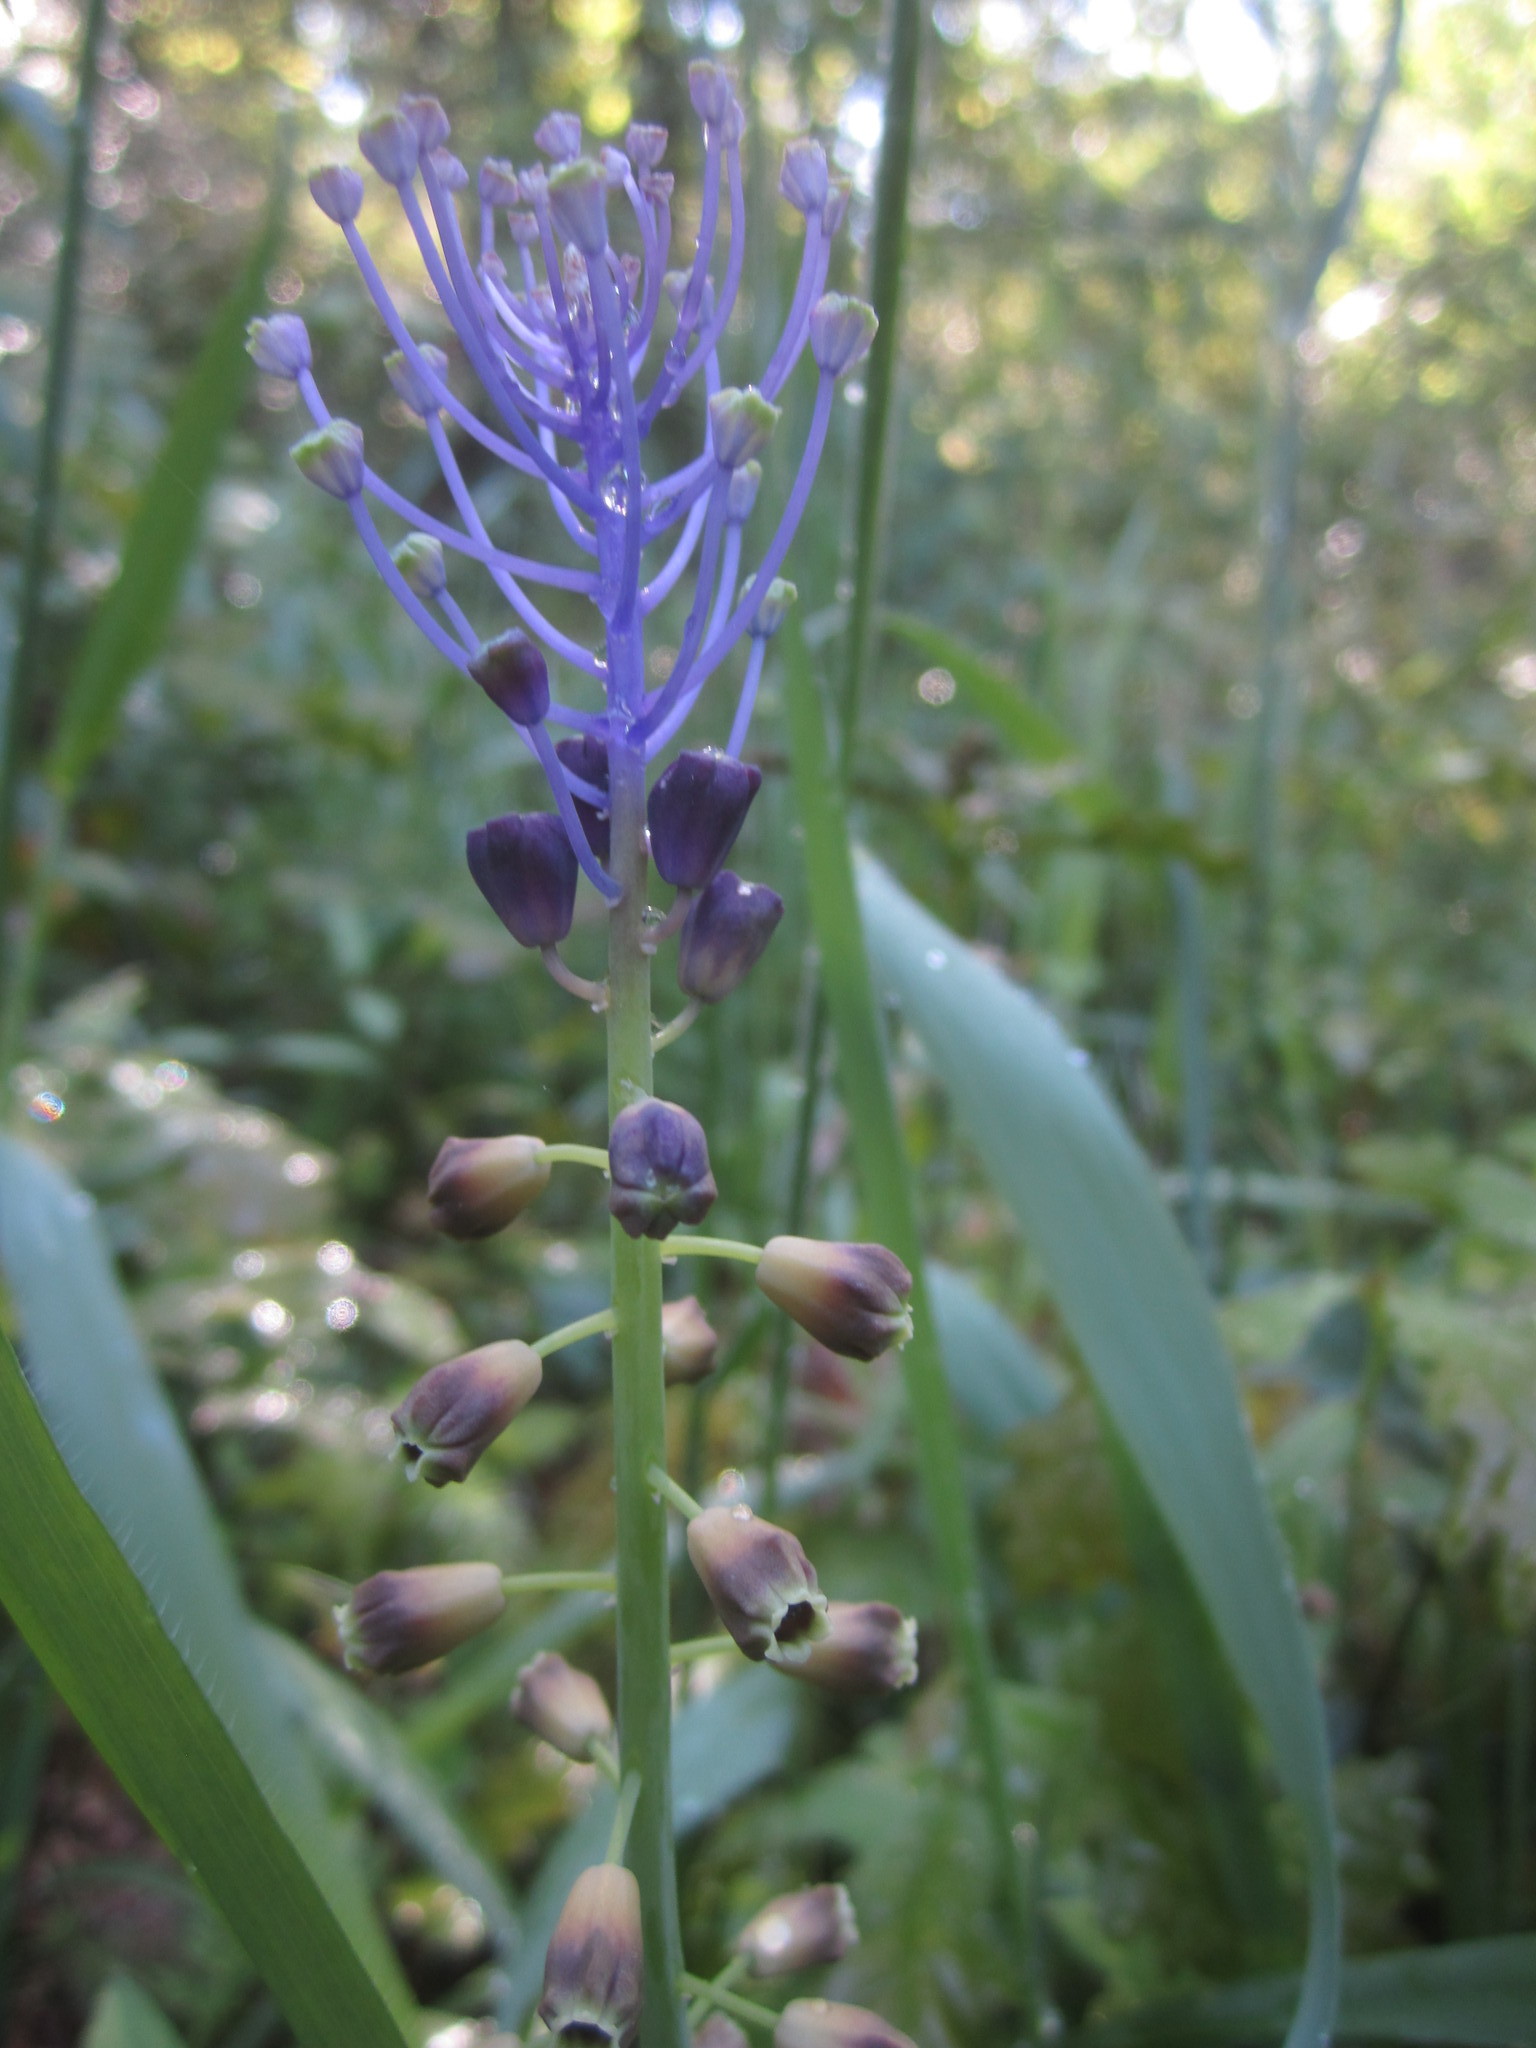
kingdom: Plantae
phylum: Tracheophyta
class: Liliopsida
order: Asparagales
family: Asparagaceae
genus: Muscari
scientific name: Muscari comosum
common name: Tassel hyacinth
